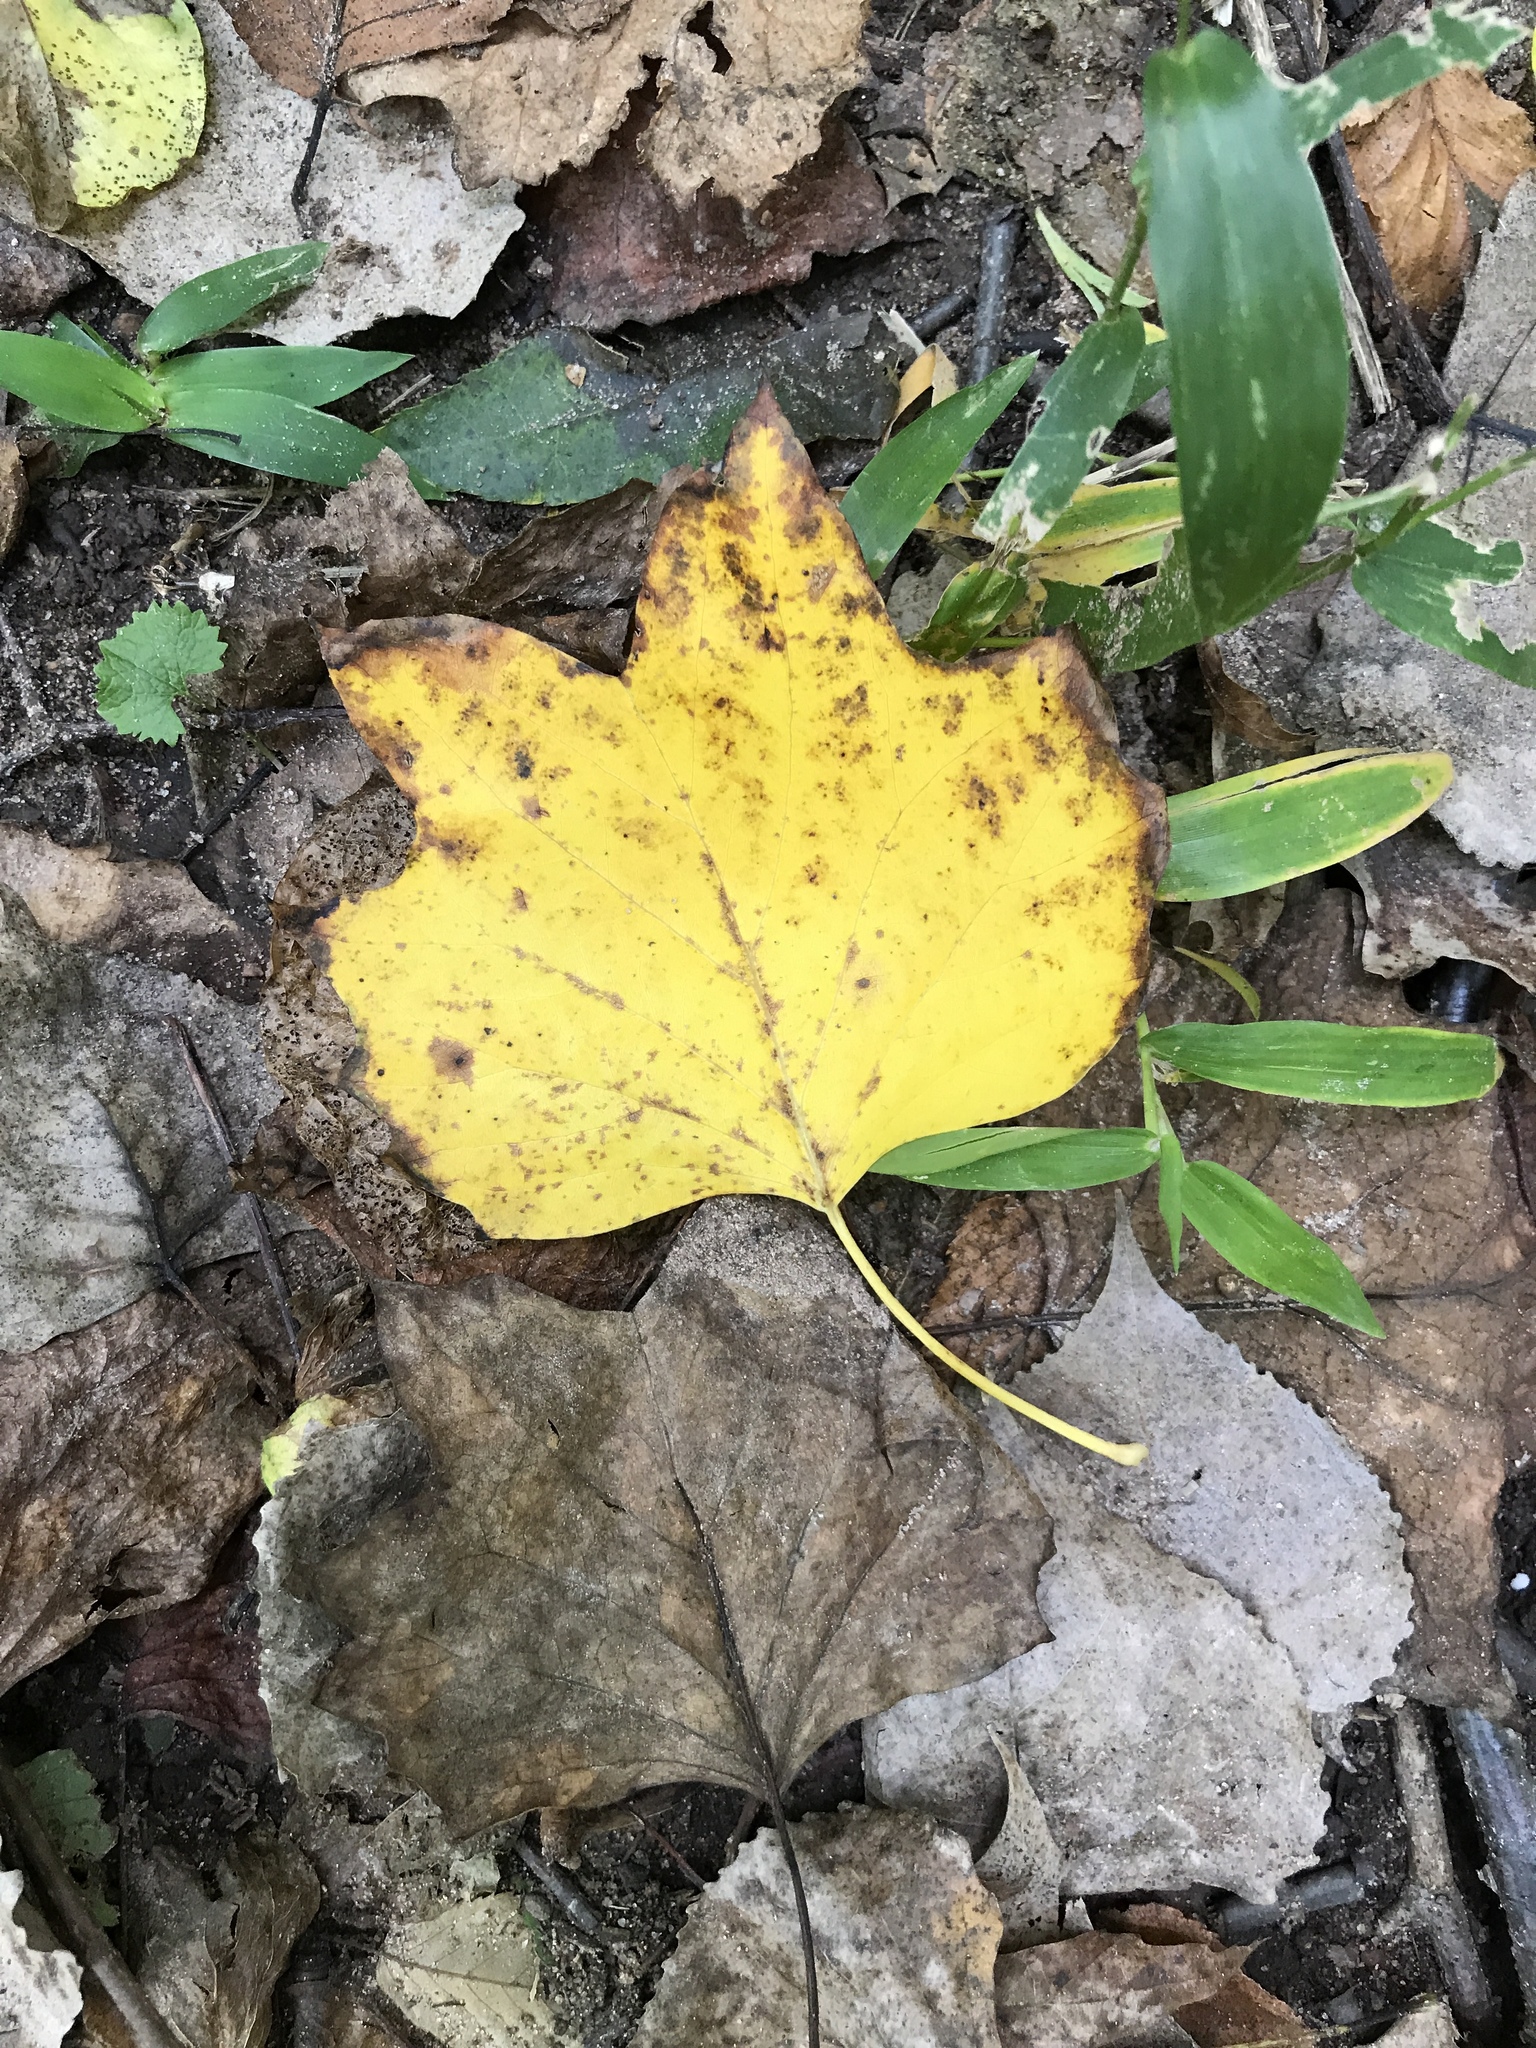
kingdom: Plantae
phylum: Tracheophyta
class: Magnoliopsida
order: Magnoliales
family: Magnoliaceae
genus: Liriodendron
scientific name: Liriodendron tulipifera
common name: Tulip tree
